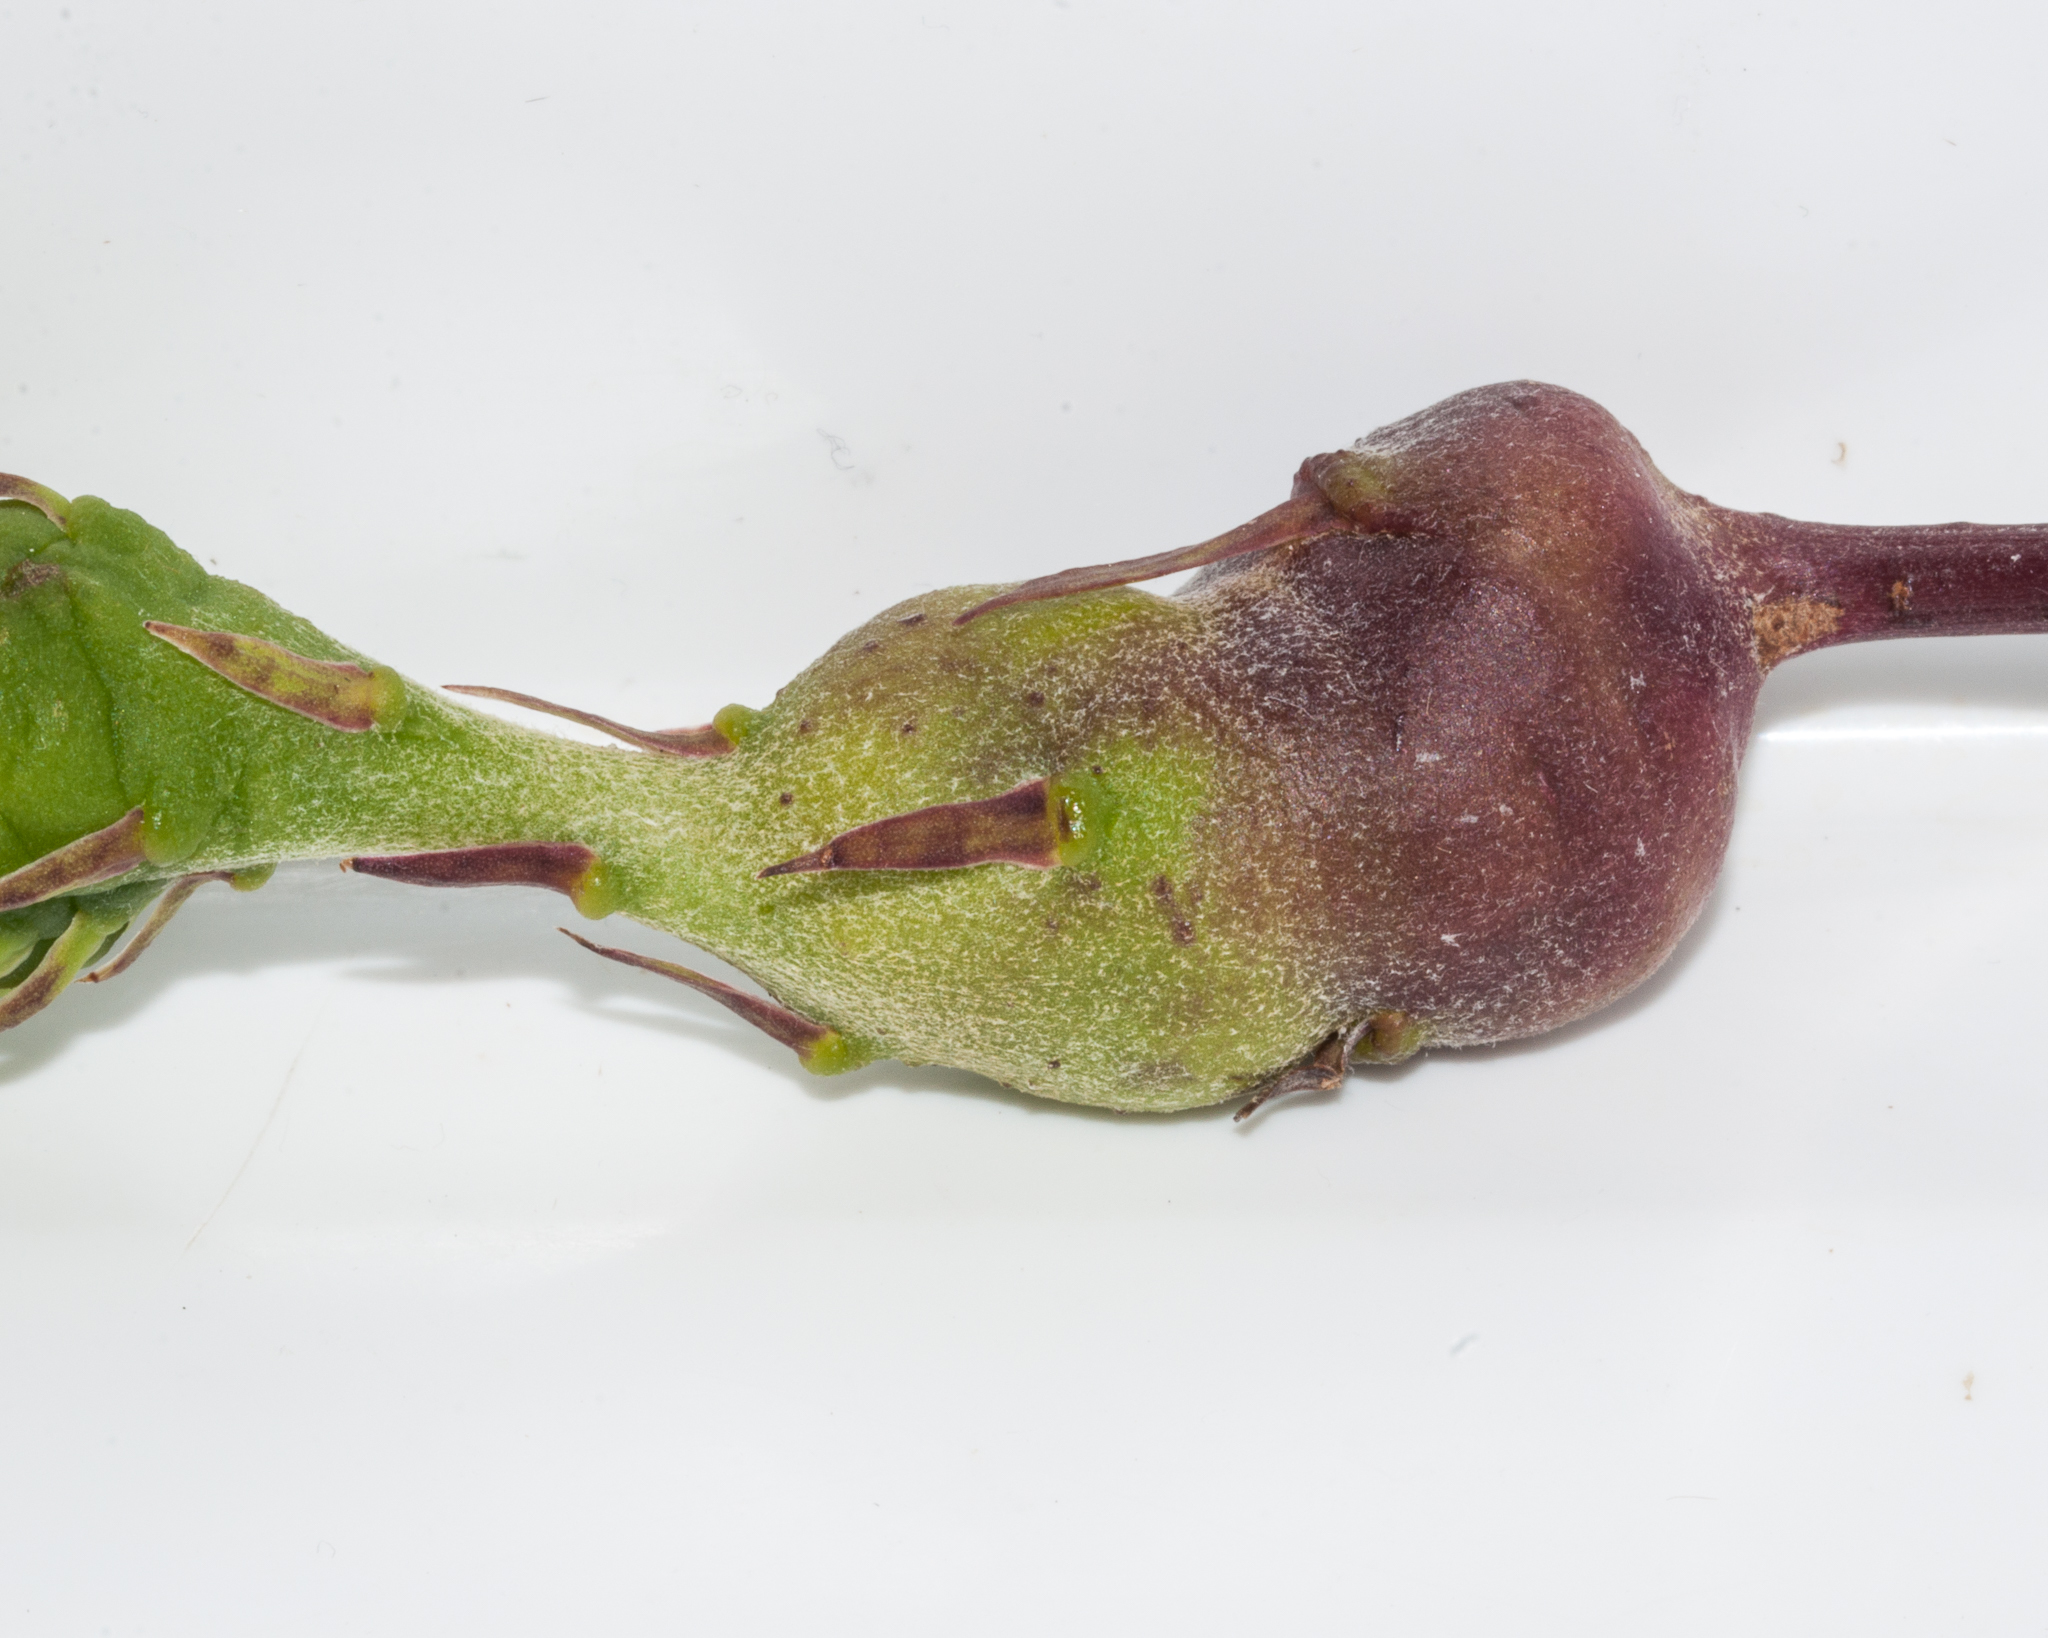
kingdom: Plantae
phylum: Tracheophyta
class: Magnoliopsida
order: Asterales
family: Asteraceae
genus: Gerbera
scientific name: Gerbera crocea
